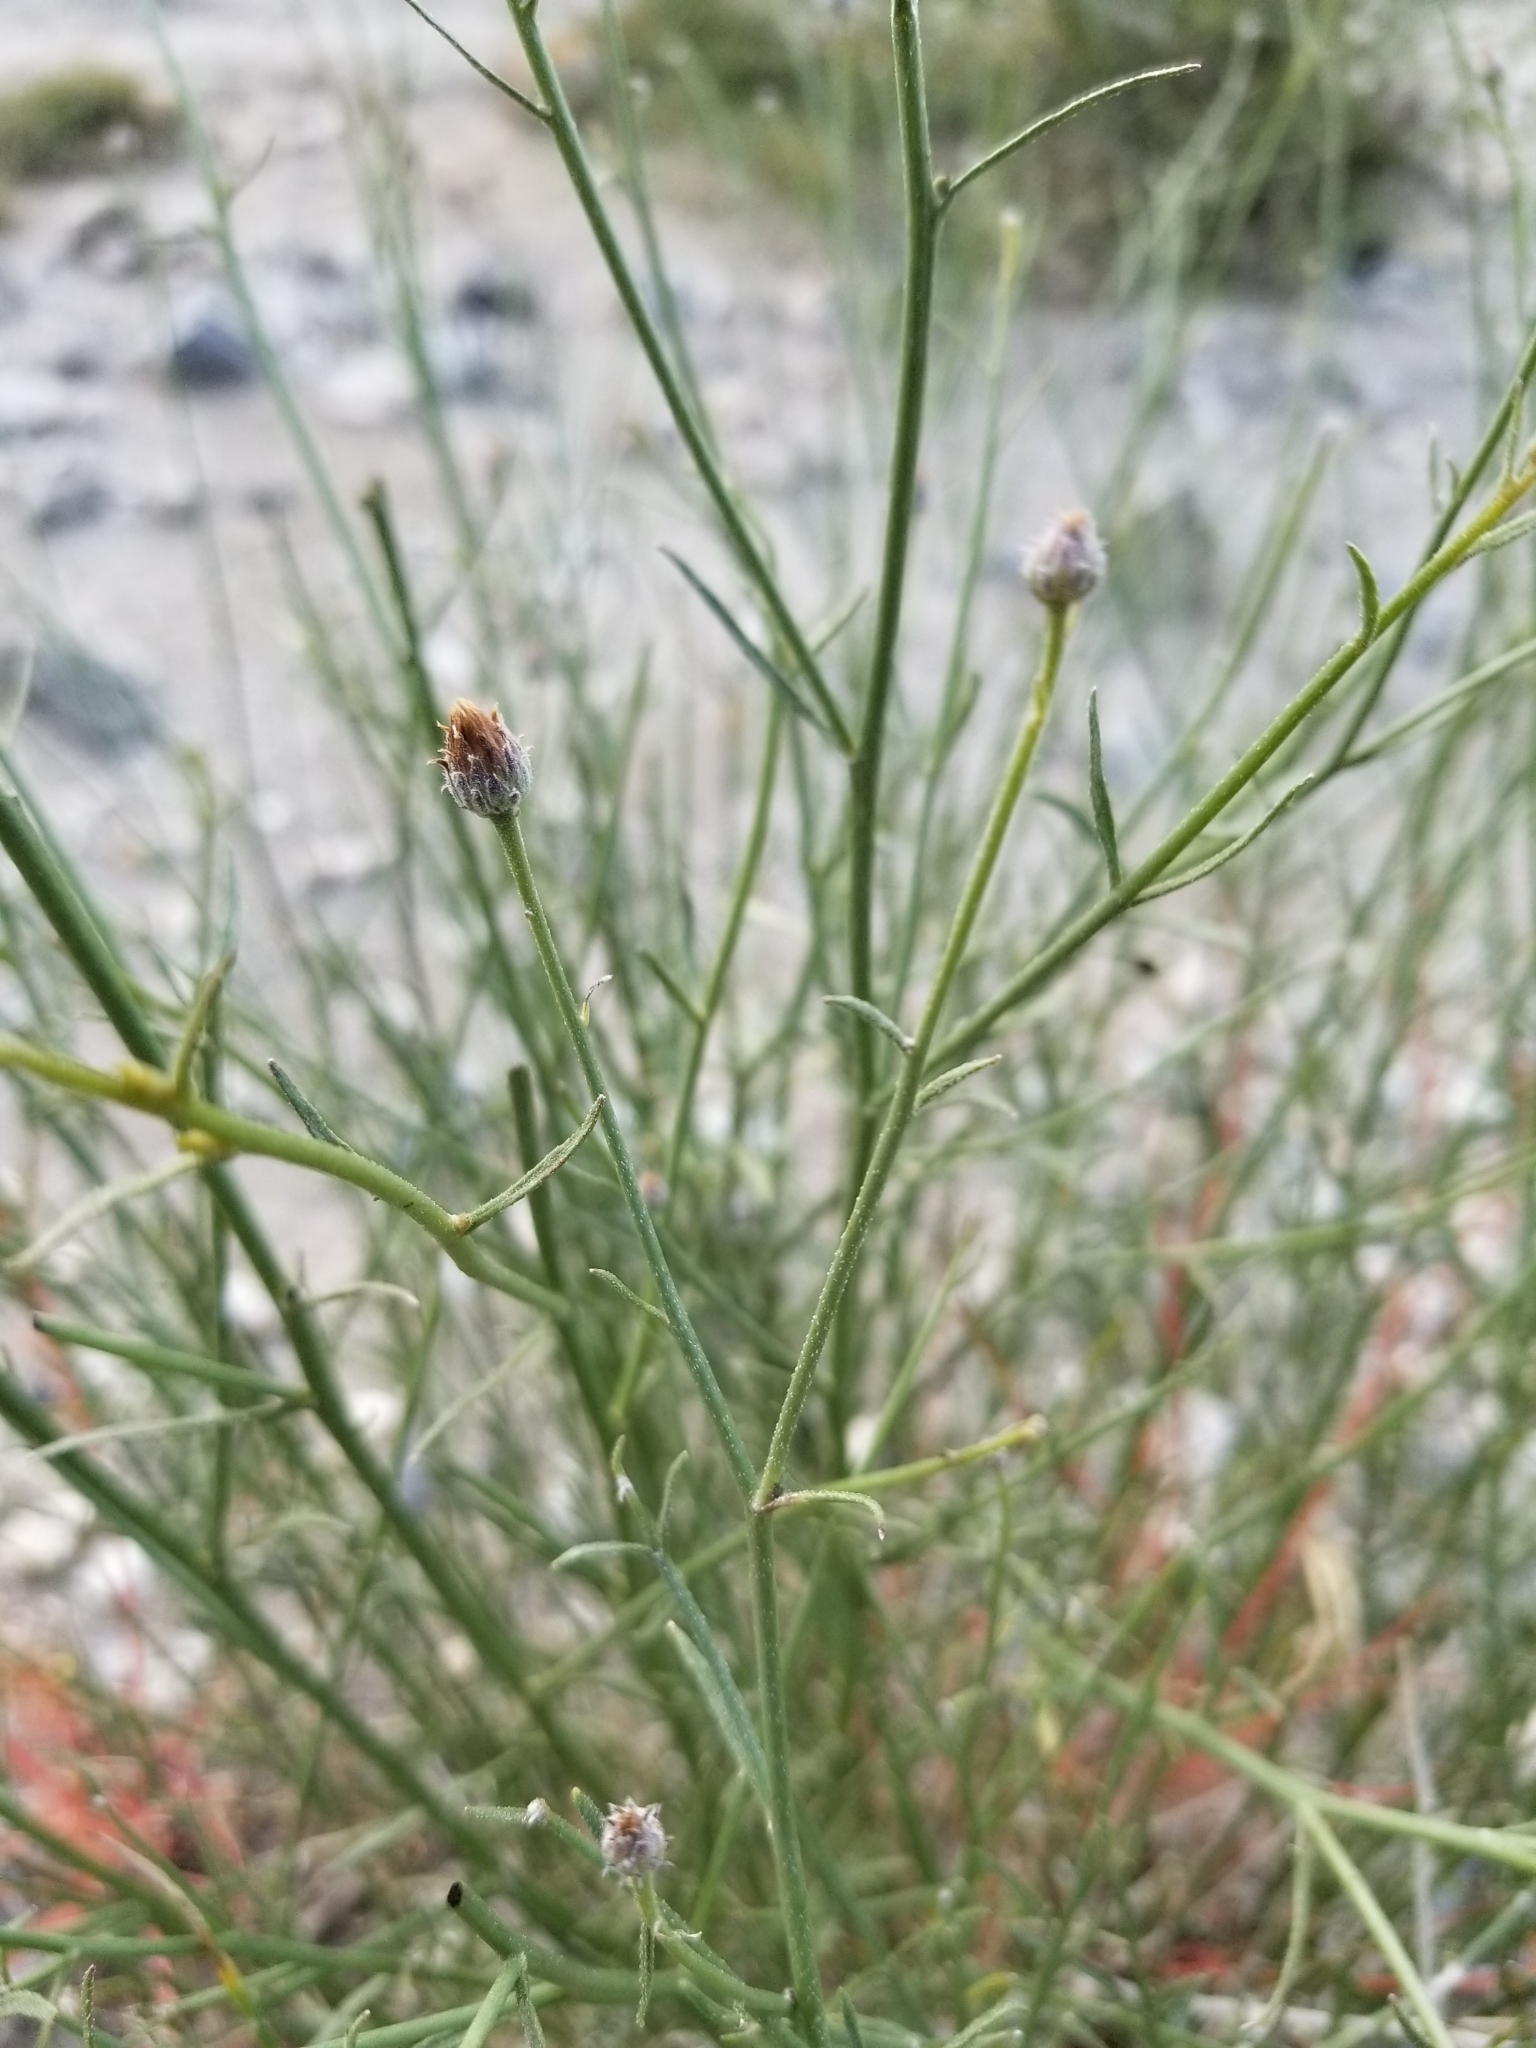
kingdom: Plantae
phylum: Tracheophyta
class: Magnoliopsida
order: Asterales
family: Asteraceae
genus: Bebbia
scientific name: Bebbia juncea
